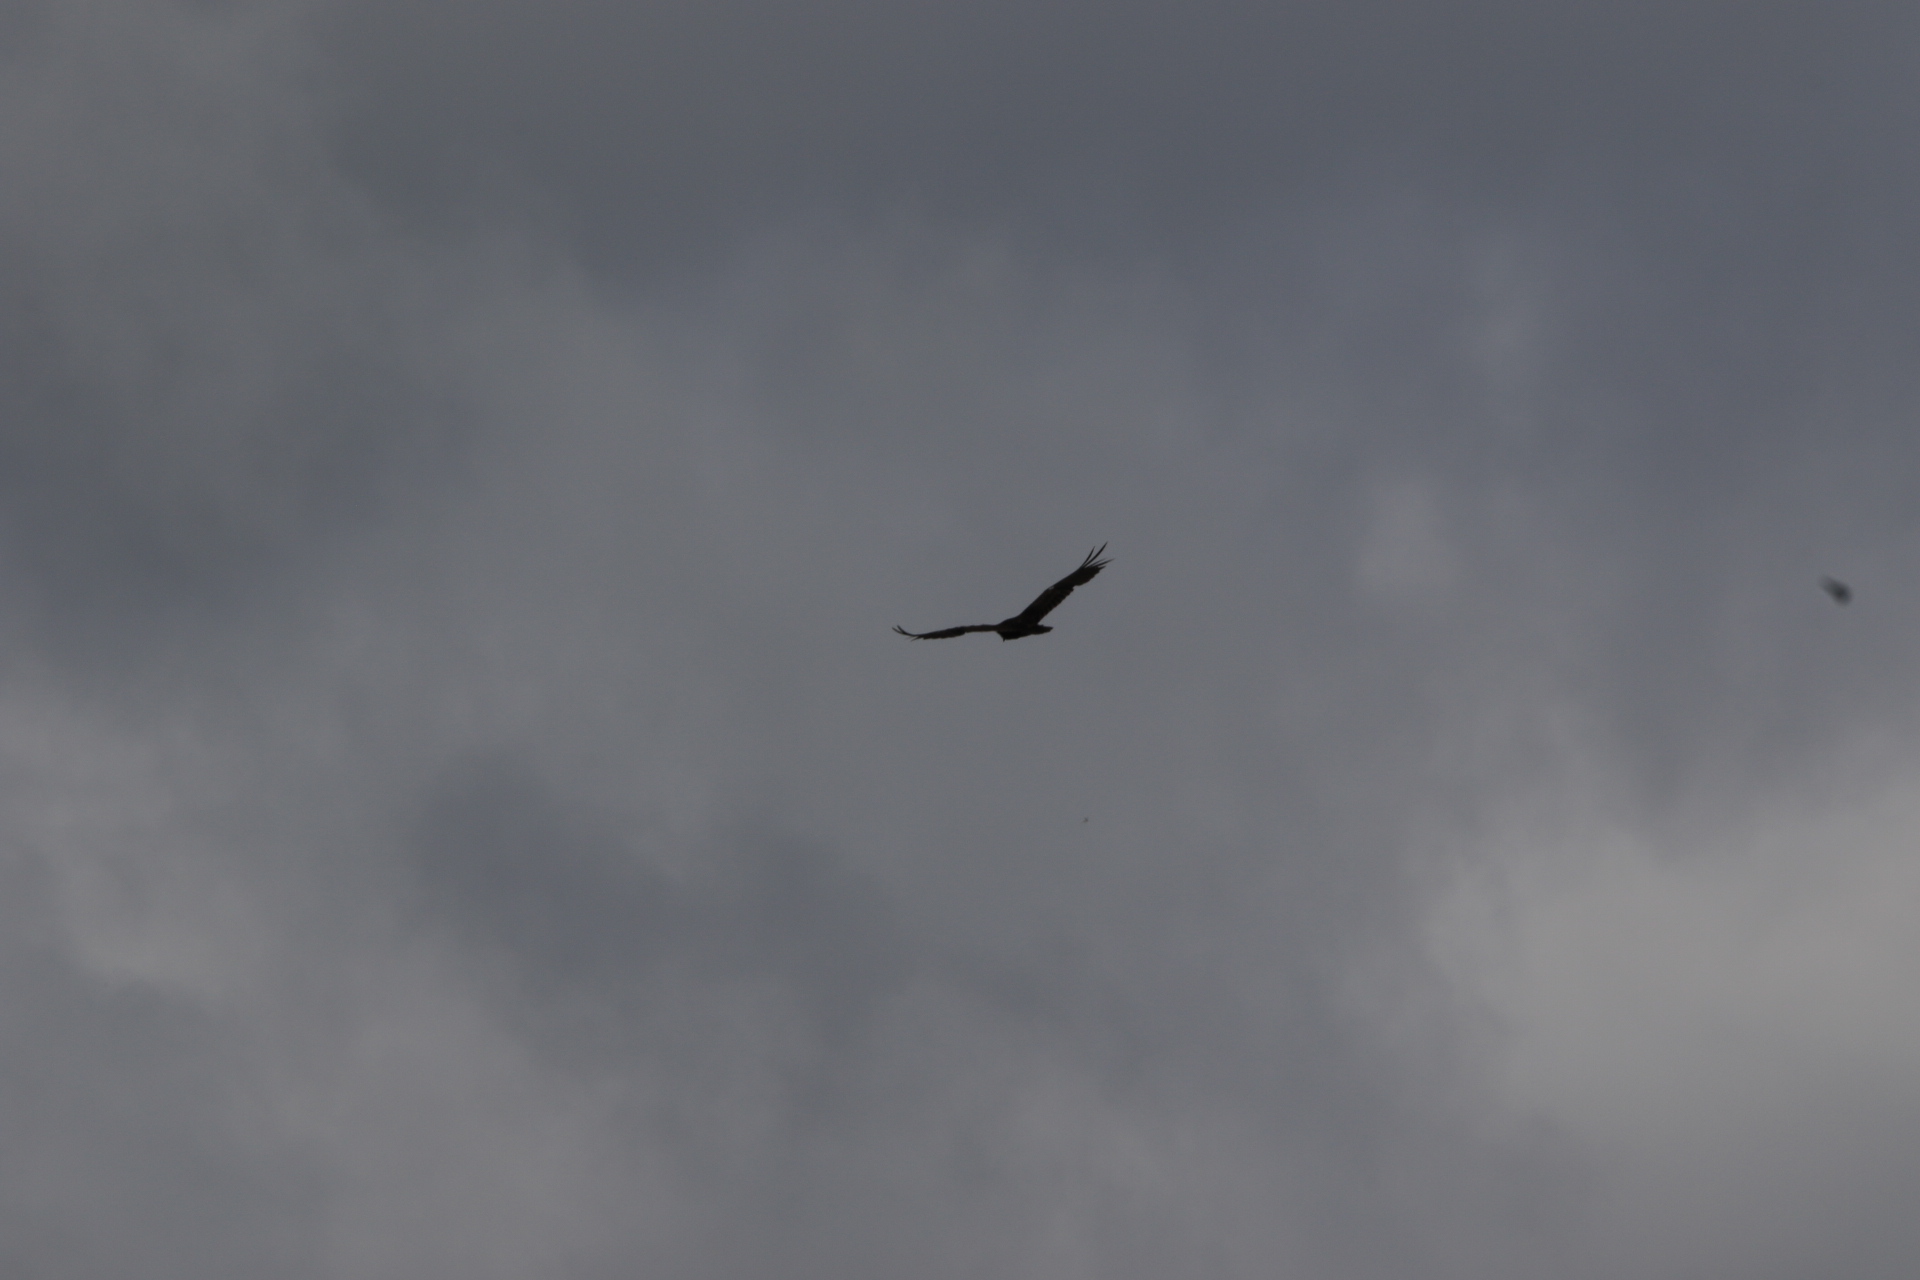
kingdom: Animalia
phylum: Chordata
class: Aves
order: Accipitriformes
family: Cathartidae
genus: Cathartes
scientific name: Cathartes aura
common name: Turkey vulture
